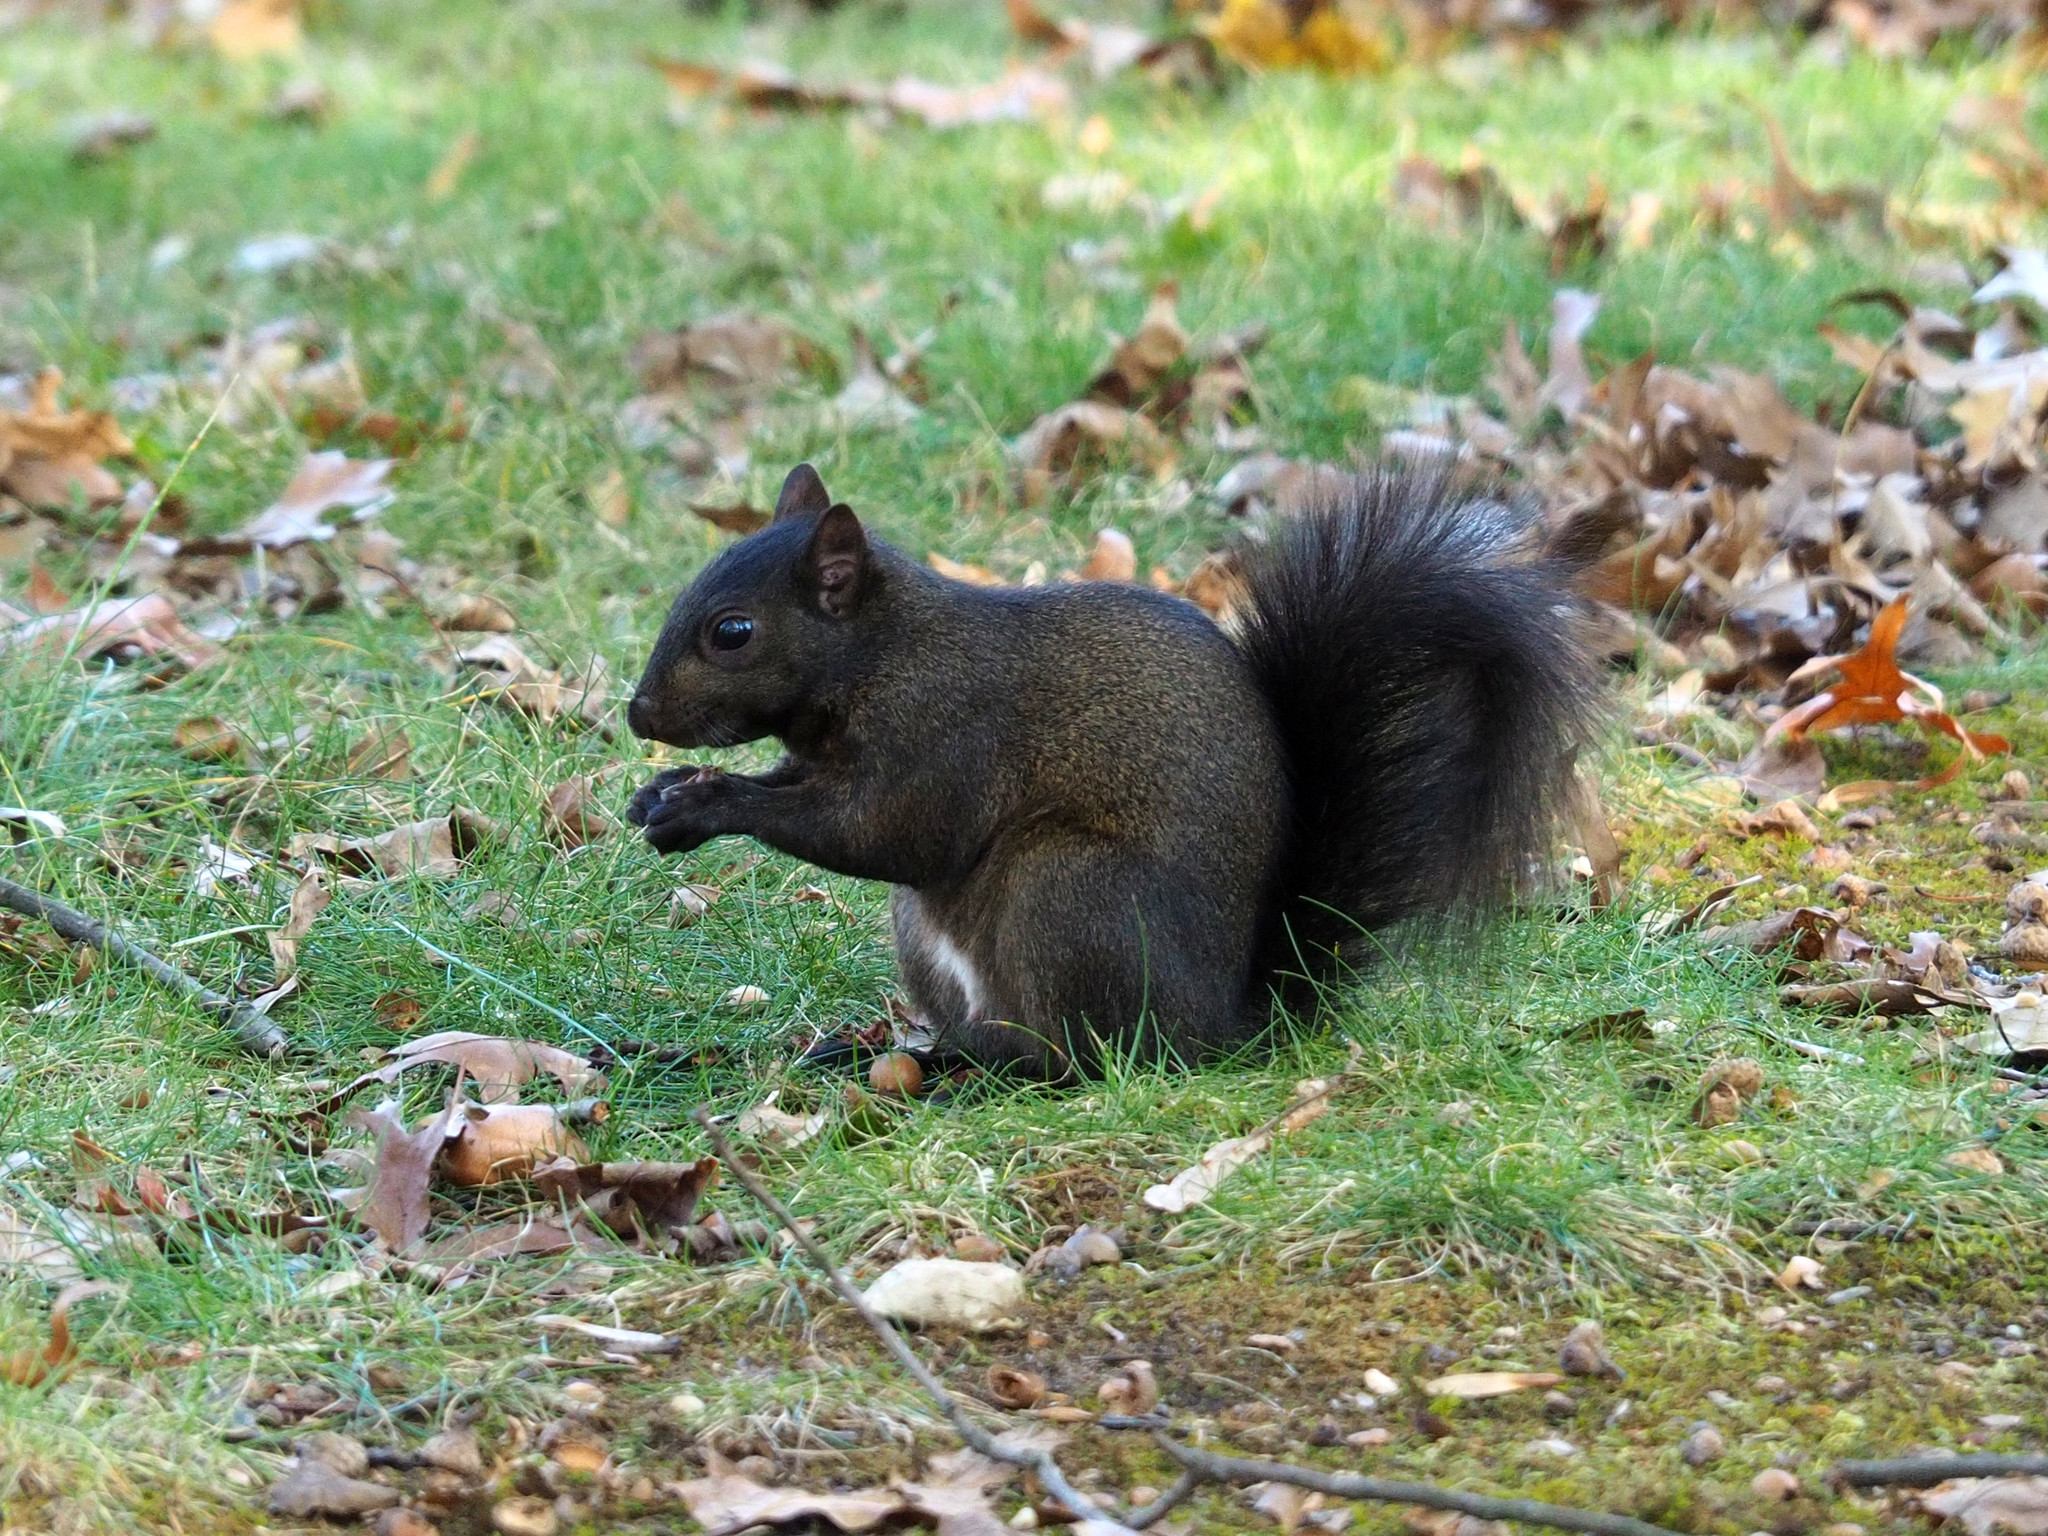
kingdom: Animalia
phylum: Chordata
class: Mammalia
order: Rodentia
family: Sciuridae
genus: Sciurus
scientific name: Sciurus carolinensis
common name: Eastern gray squirrel
